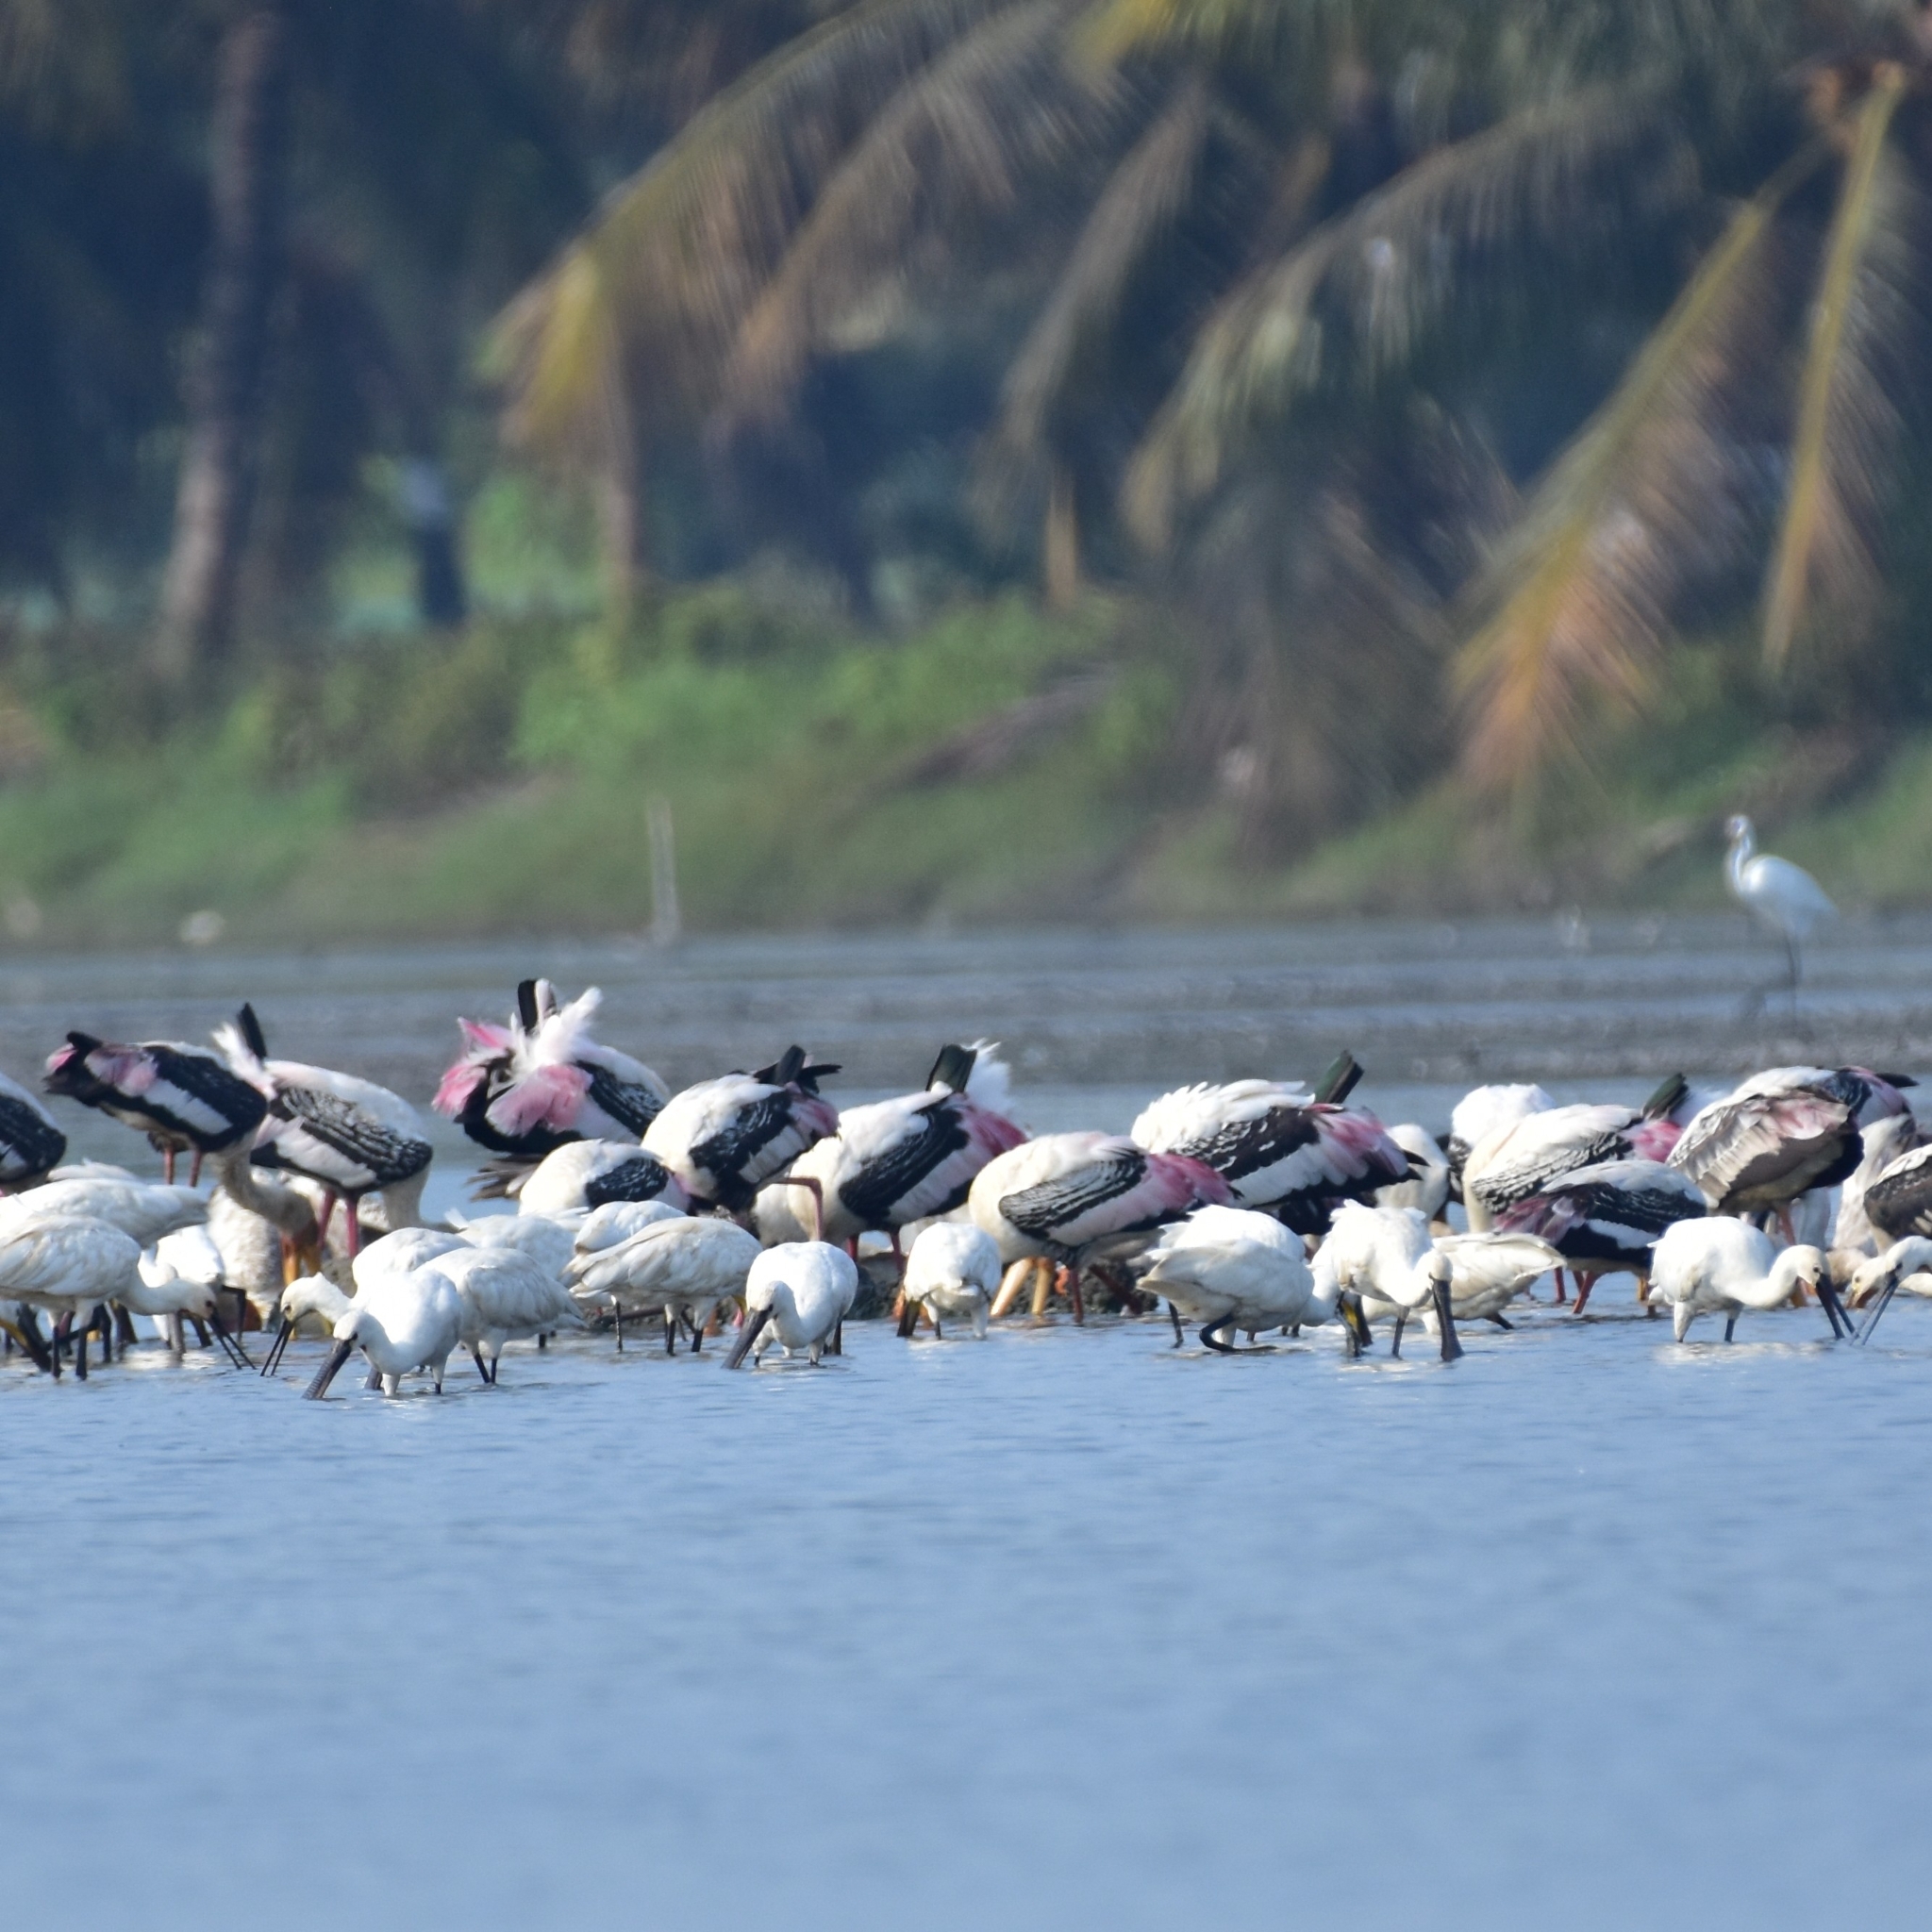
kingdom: Animalia
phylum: Chordata
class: Aves
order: Ciconiiformes
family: Ciconiidae
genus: Mycteria
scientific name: Mycteria leucocephala
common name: Painted stork
